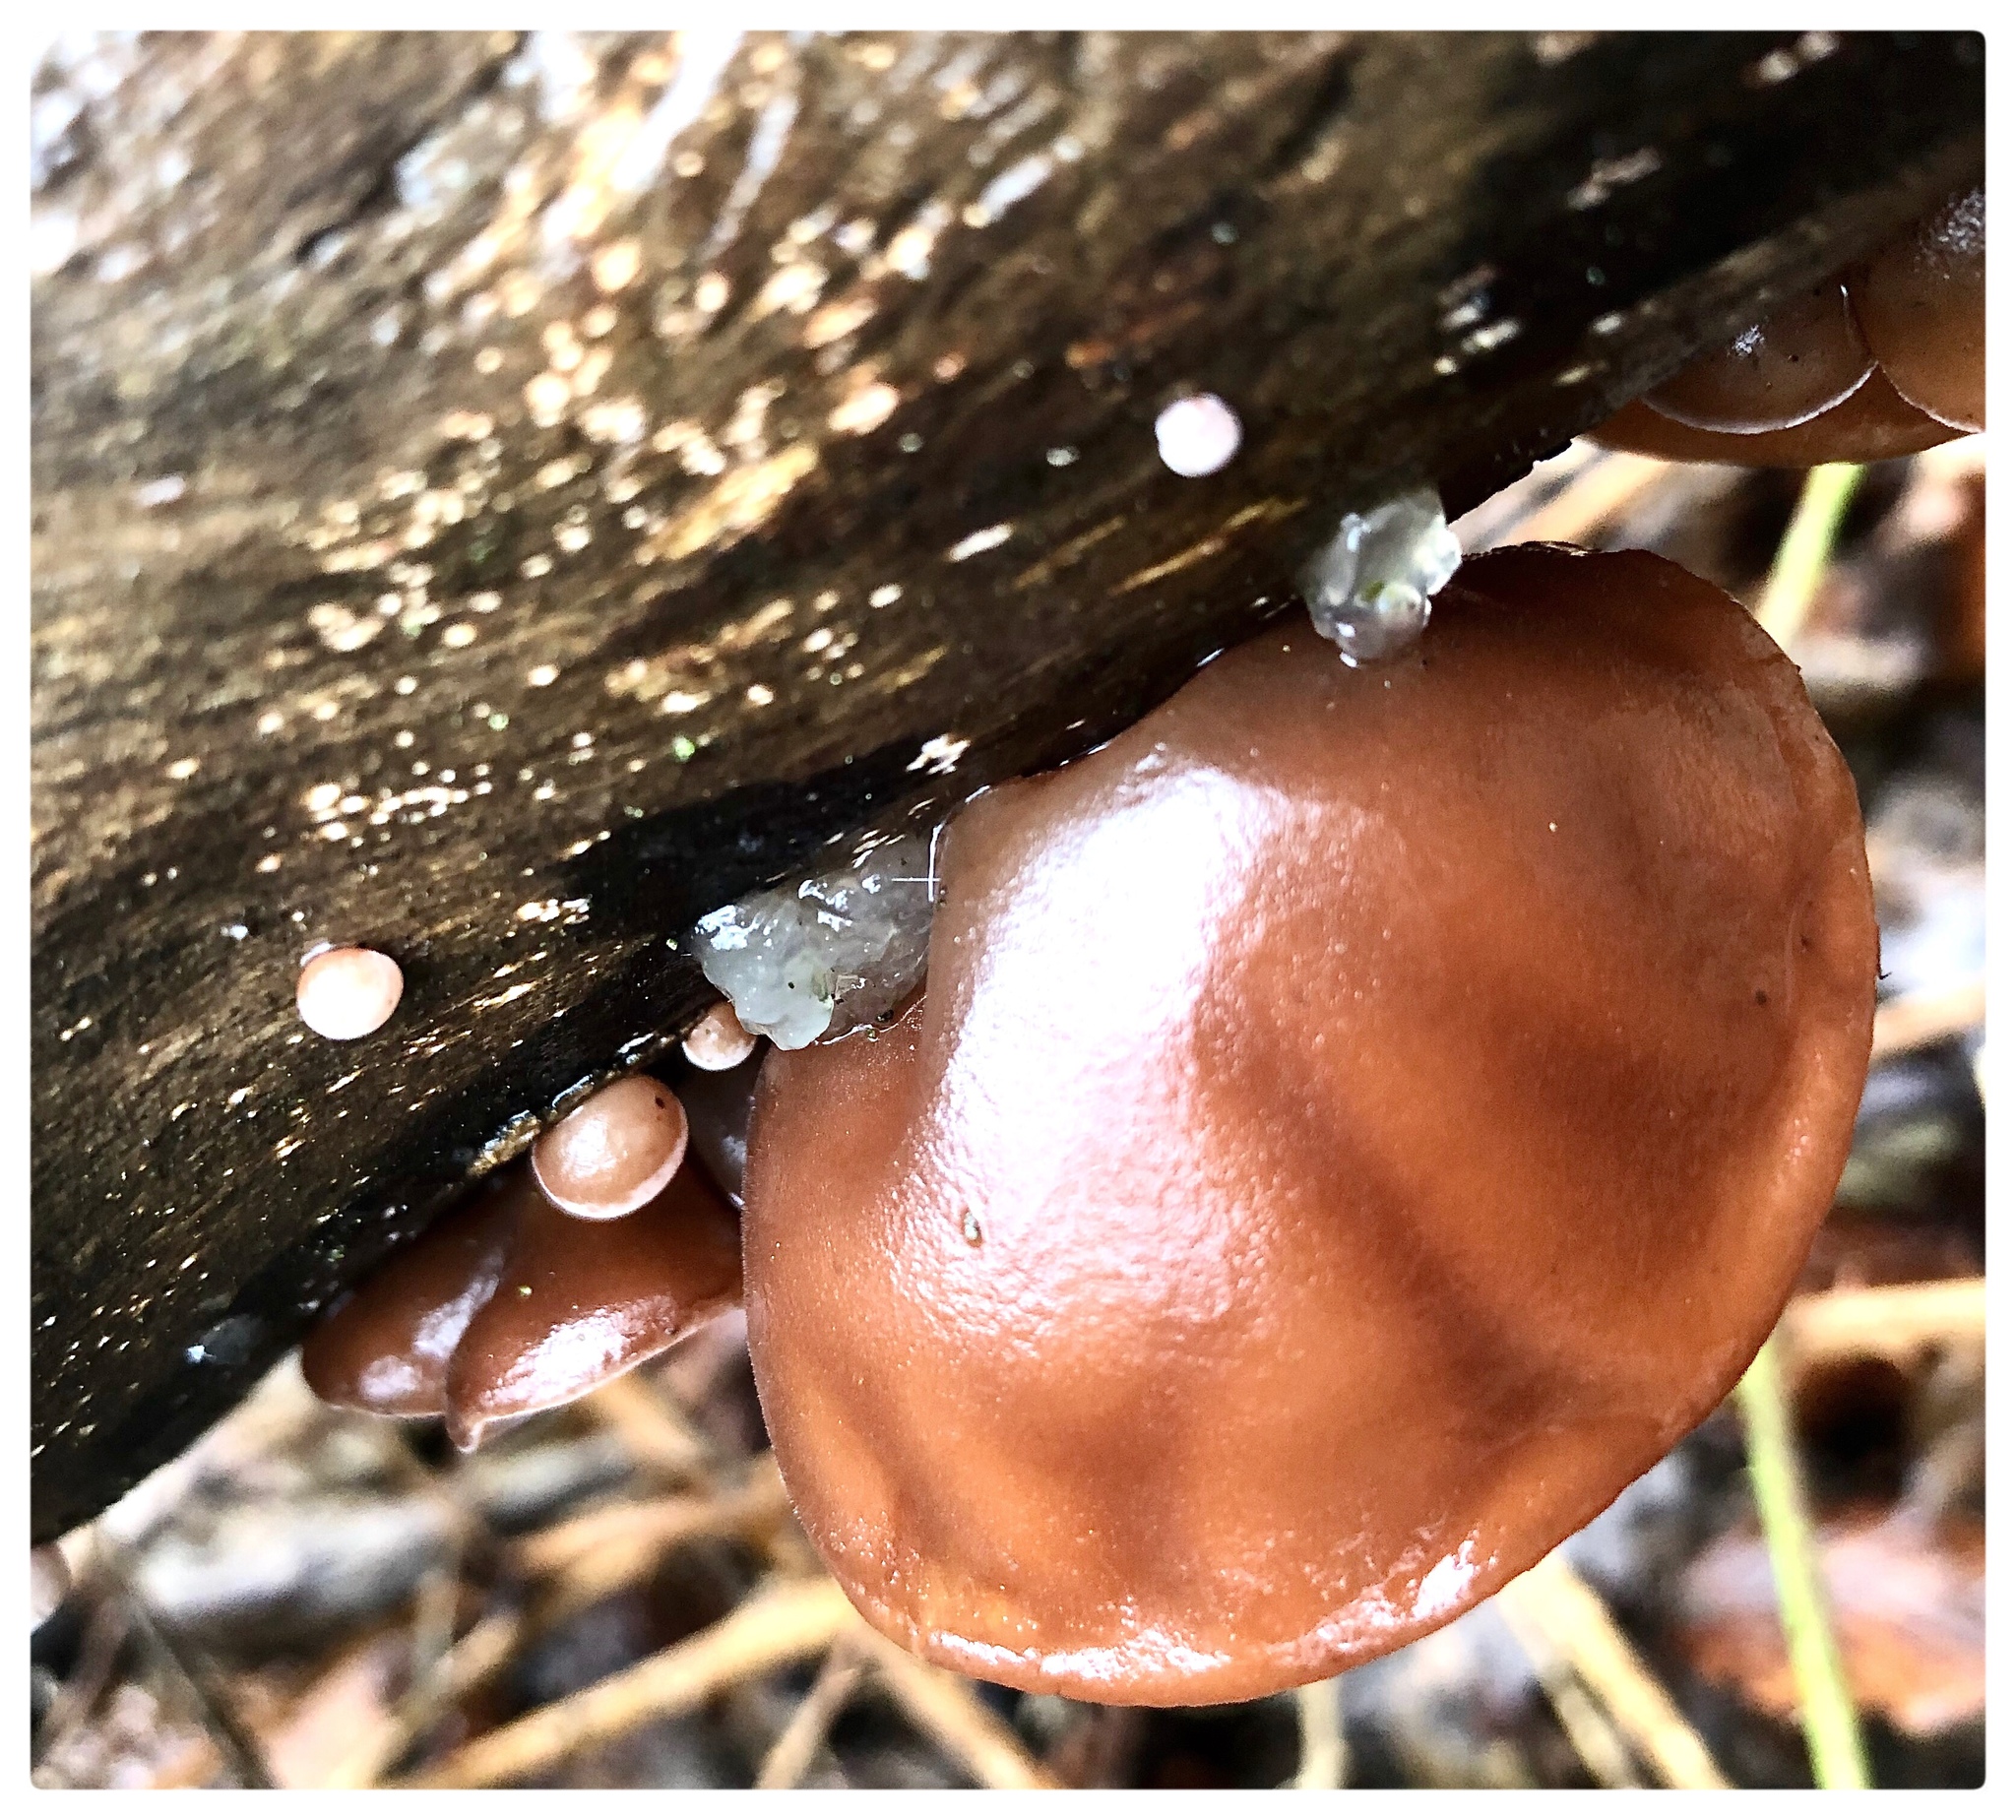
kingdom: Fungi
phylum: Basidiomycota
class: Agaricomycetes
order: Auriculariales
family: Hyaloriaceae
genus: Myxarium
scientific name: Myxarium nucleatum
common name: Crystal brain fungus
